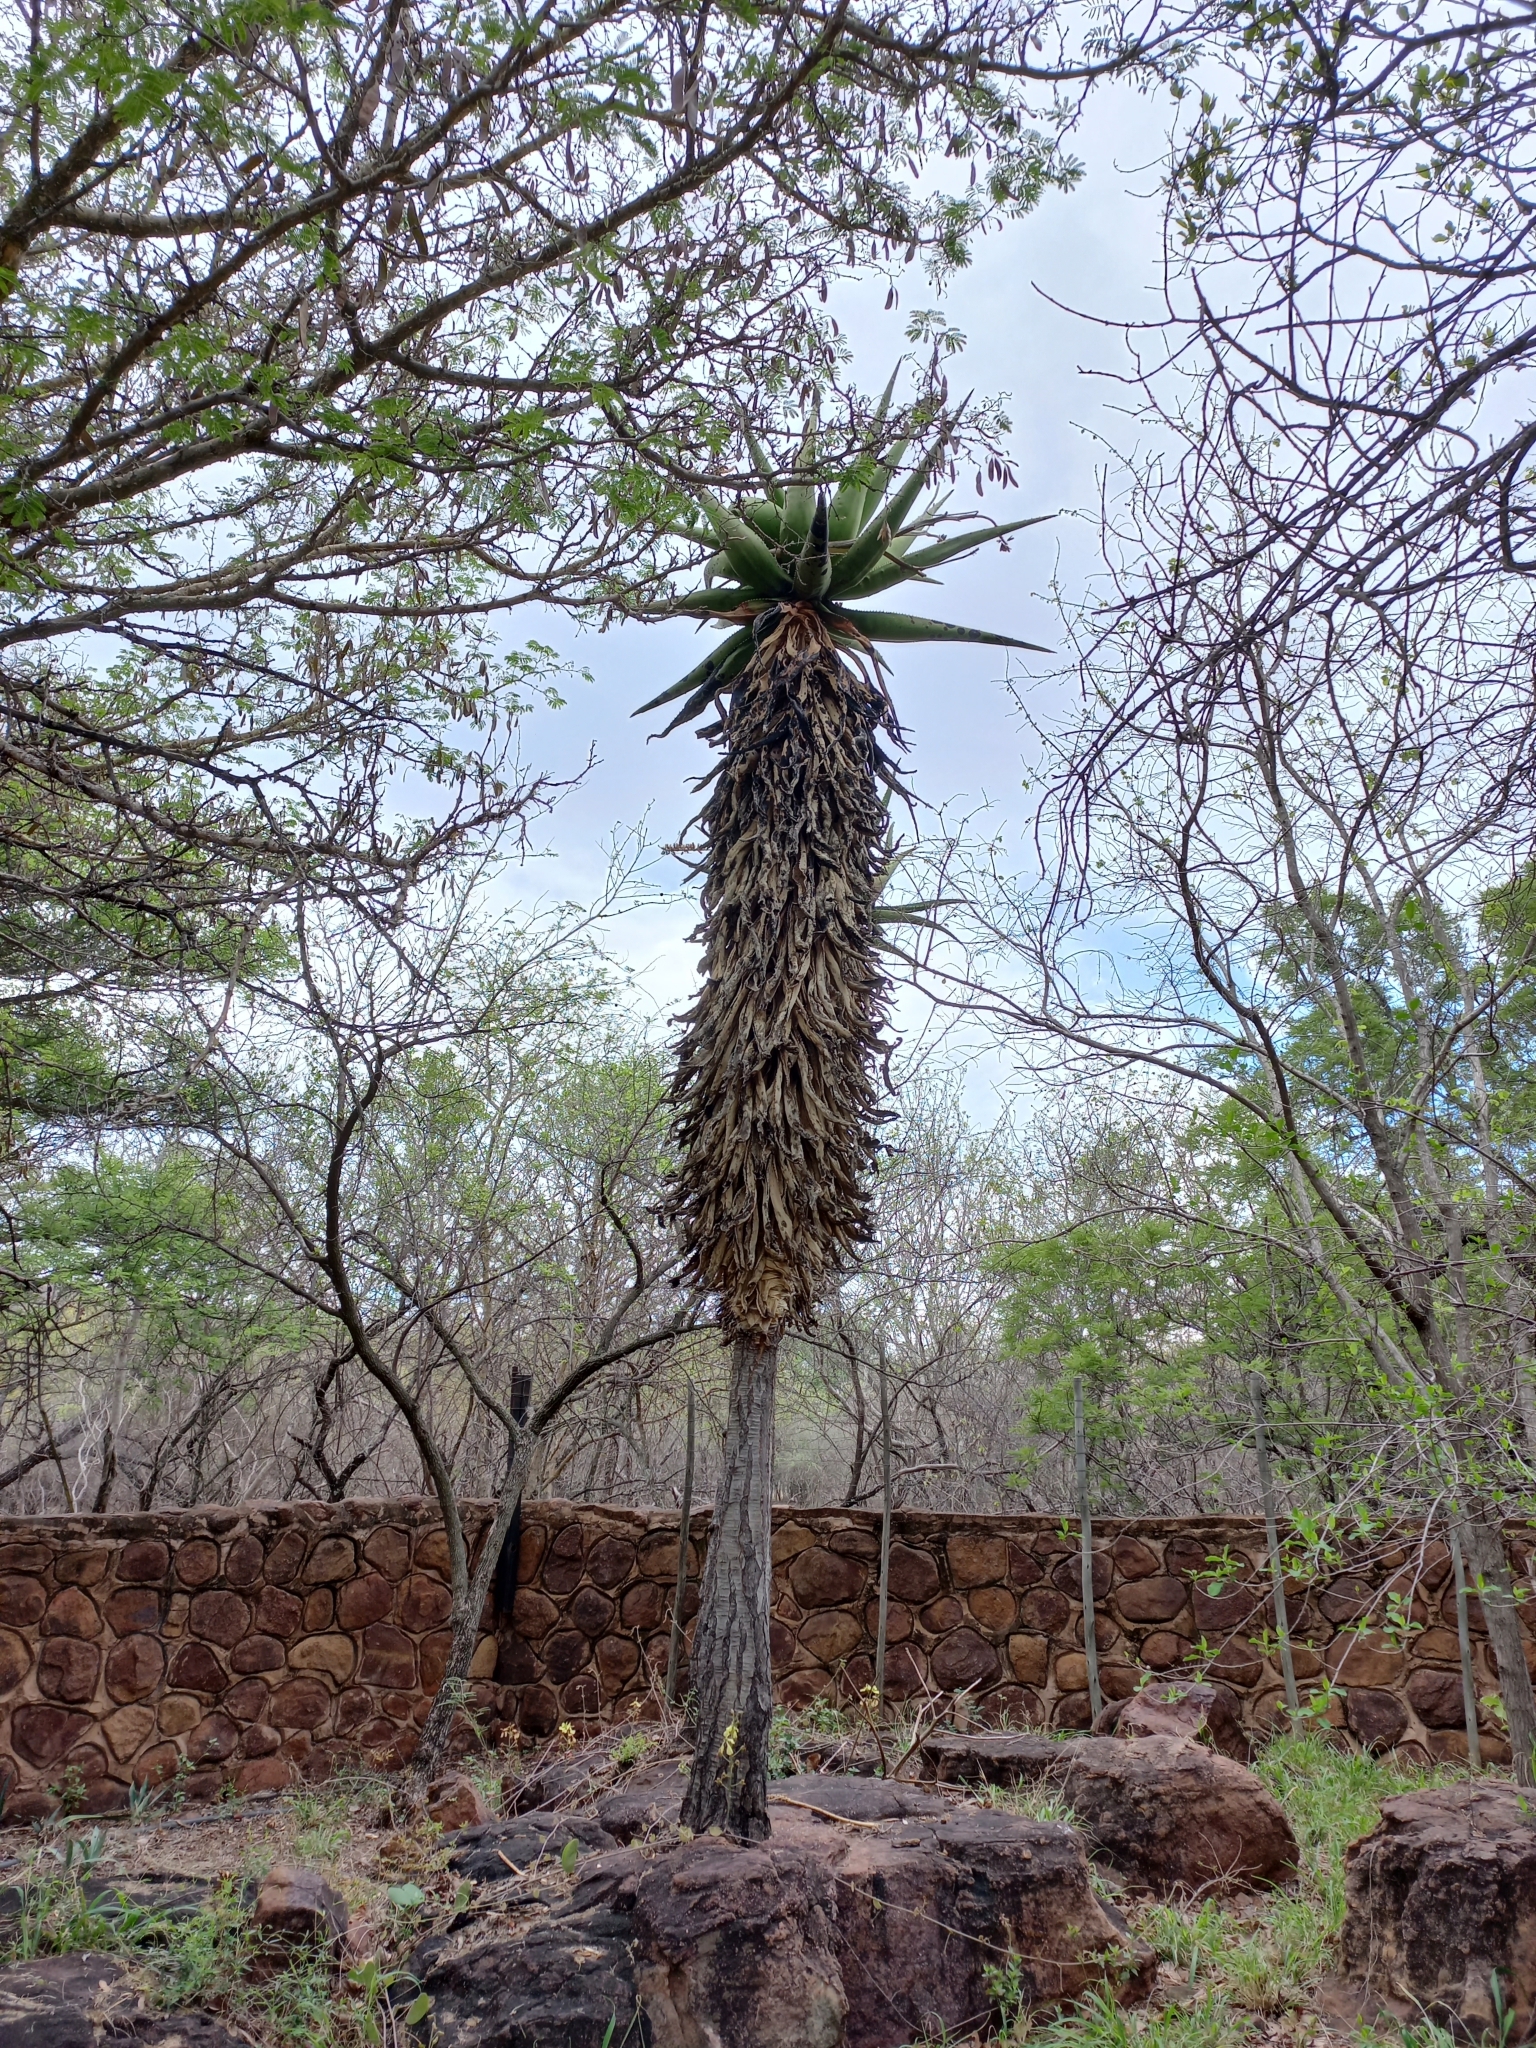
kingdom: Plantae
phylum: Tracheophyta
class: Liliopsida
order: Asparagales
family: Asphodelaceae
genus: Aloe
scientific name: Aloe marlothii
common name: Flat-flowered aloe
